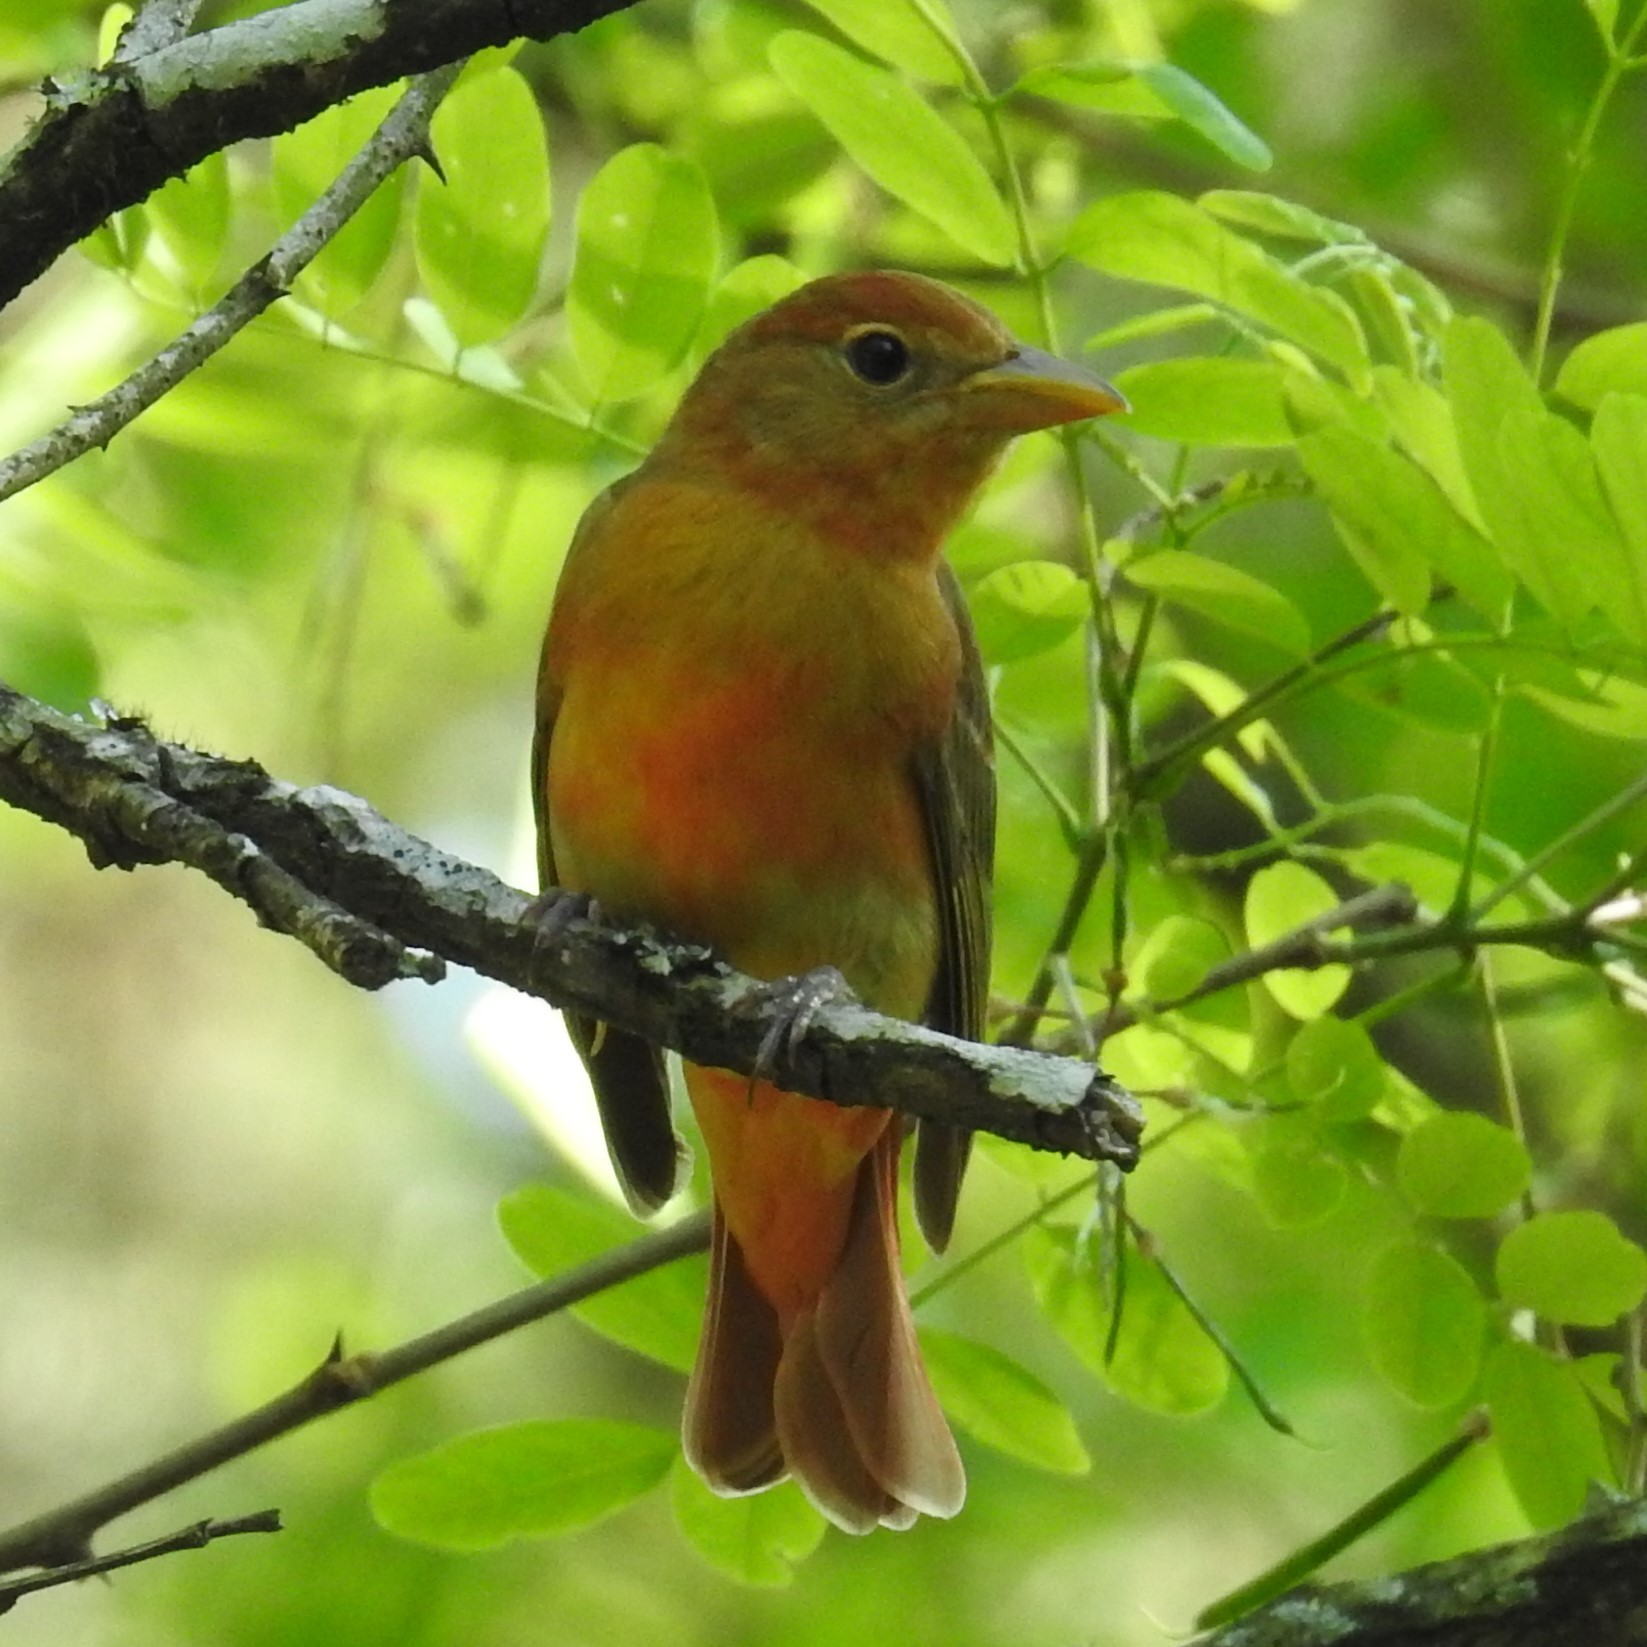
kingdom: Animalia
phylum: Chordata
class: Aves
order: Passeriformes
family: Cardinalidae
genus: Piranga
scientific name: Piranga rubra
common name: Summer tanager
